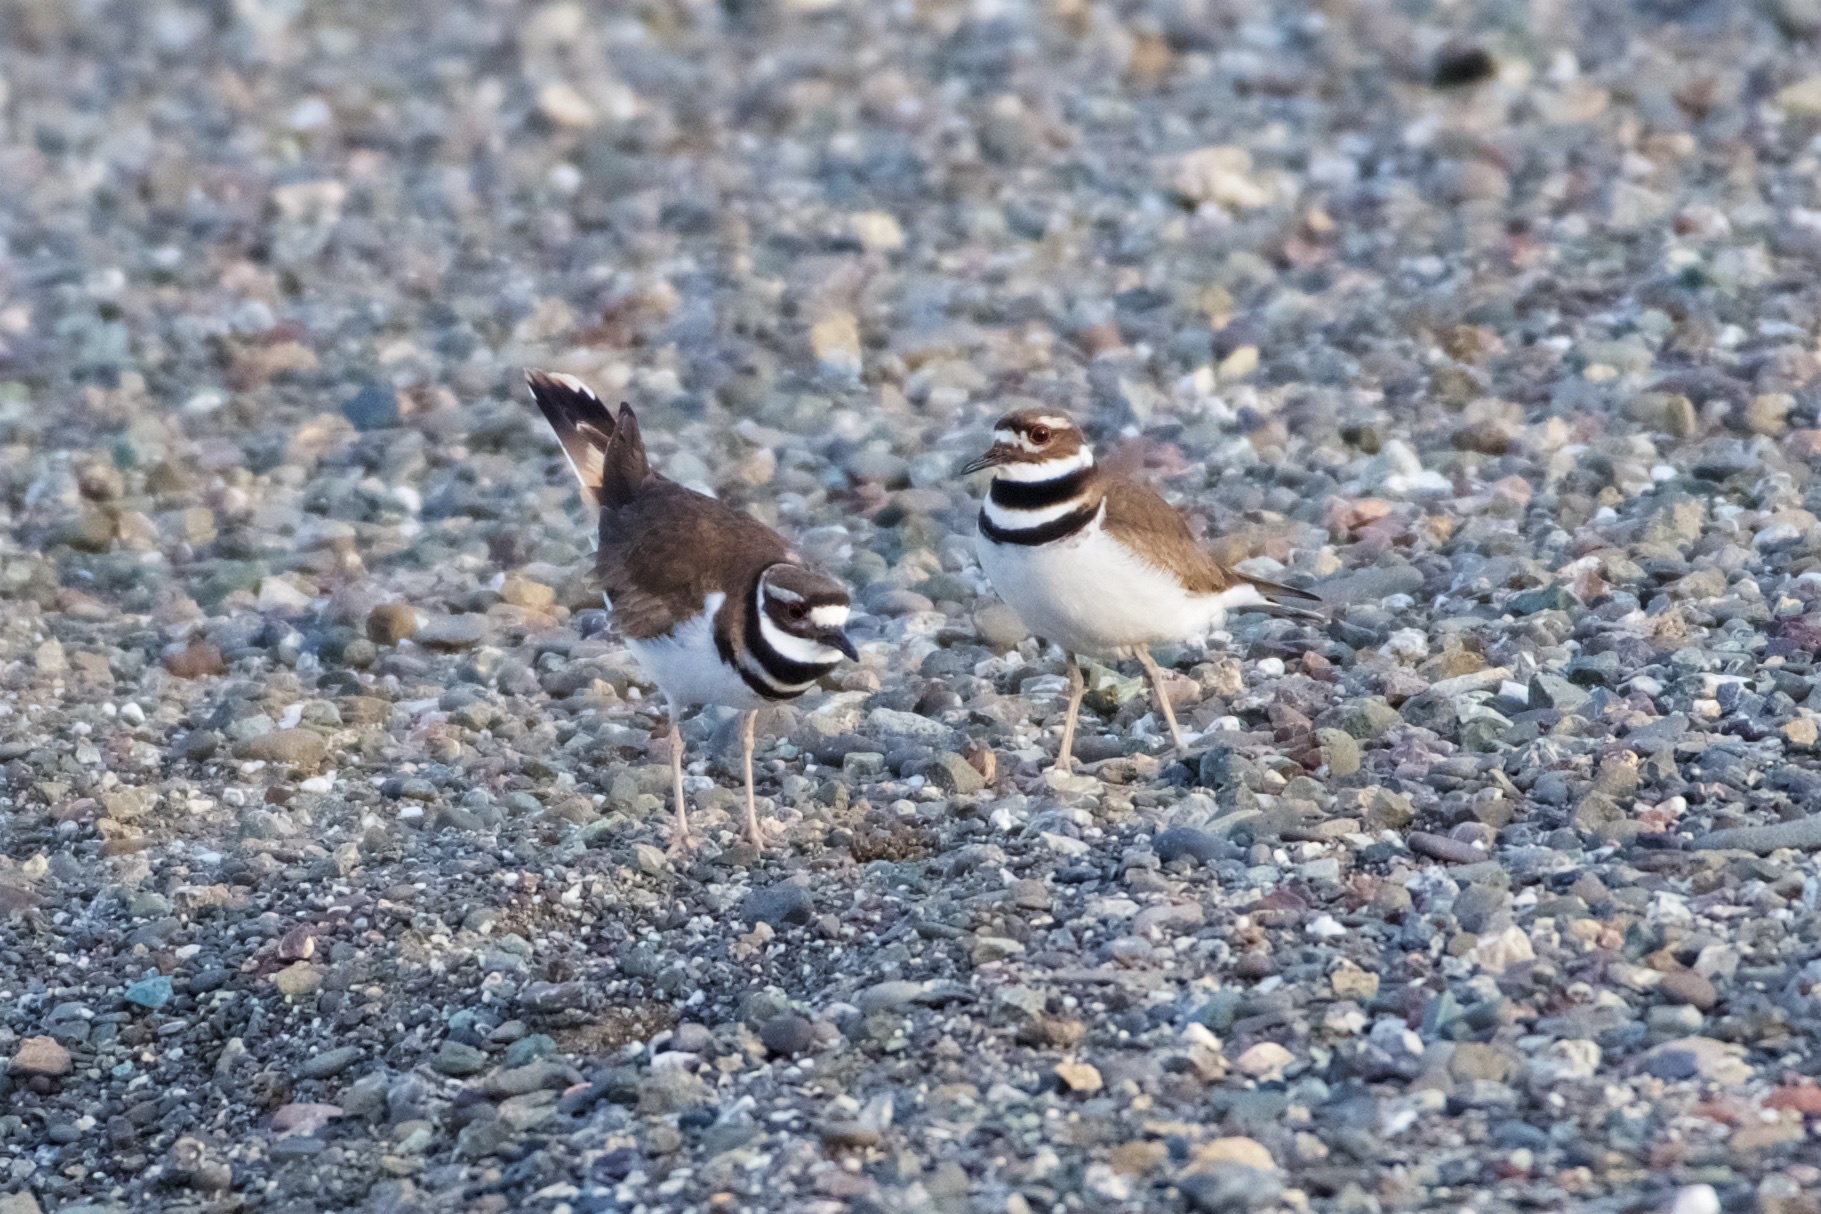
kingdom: Animalia
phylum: Chordata
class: Aves
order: Charadriiformes
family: Charadriidae
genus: Charadrius
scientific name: Charadrius vociferus
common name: Killdeer
